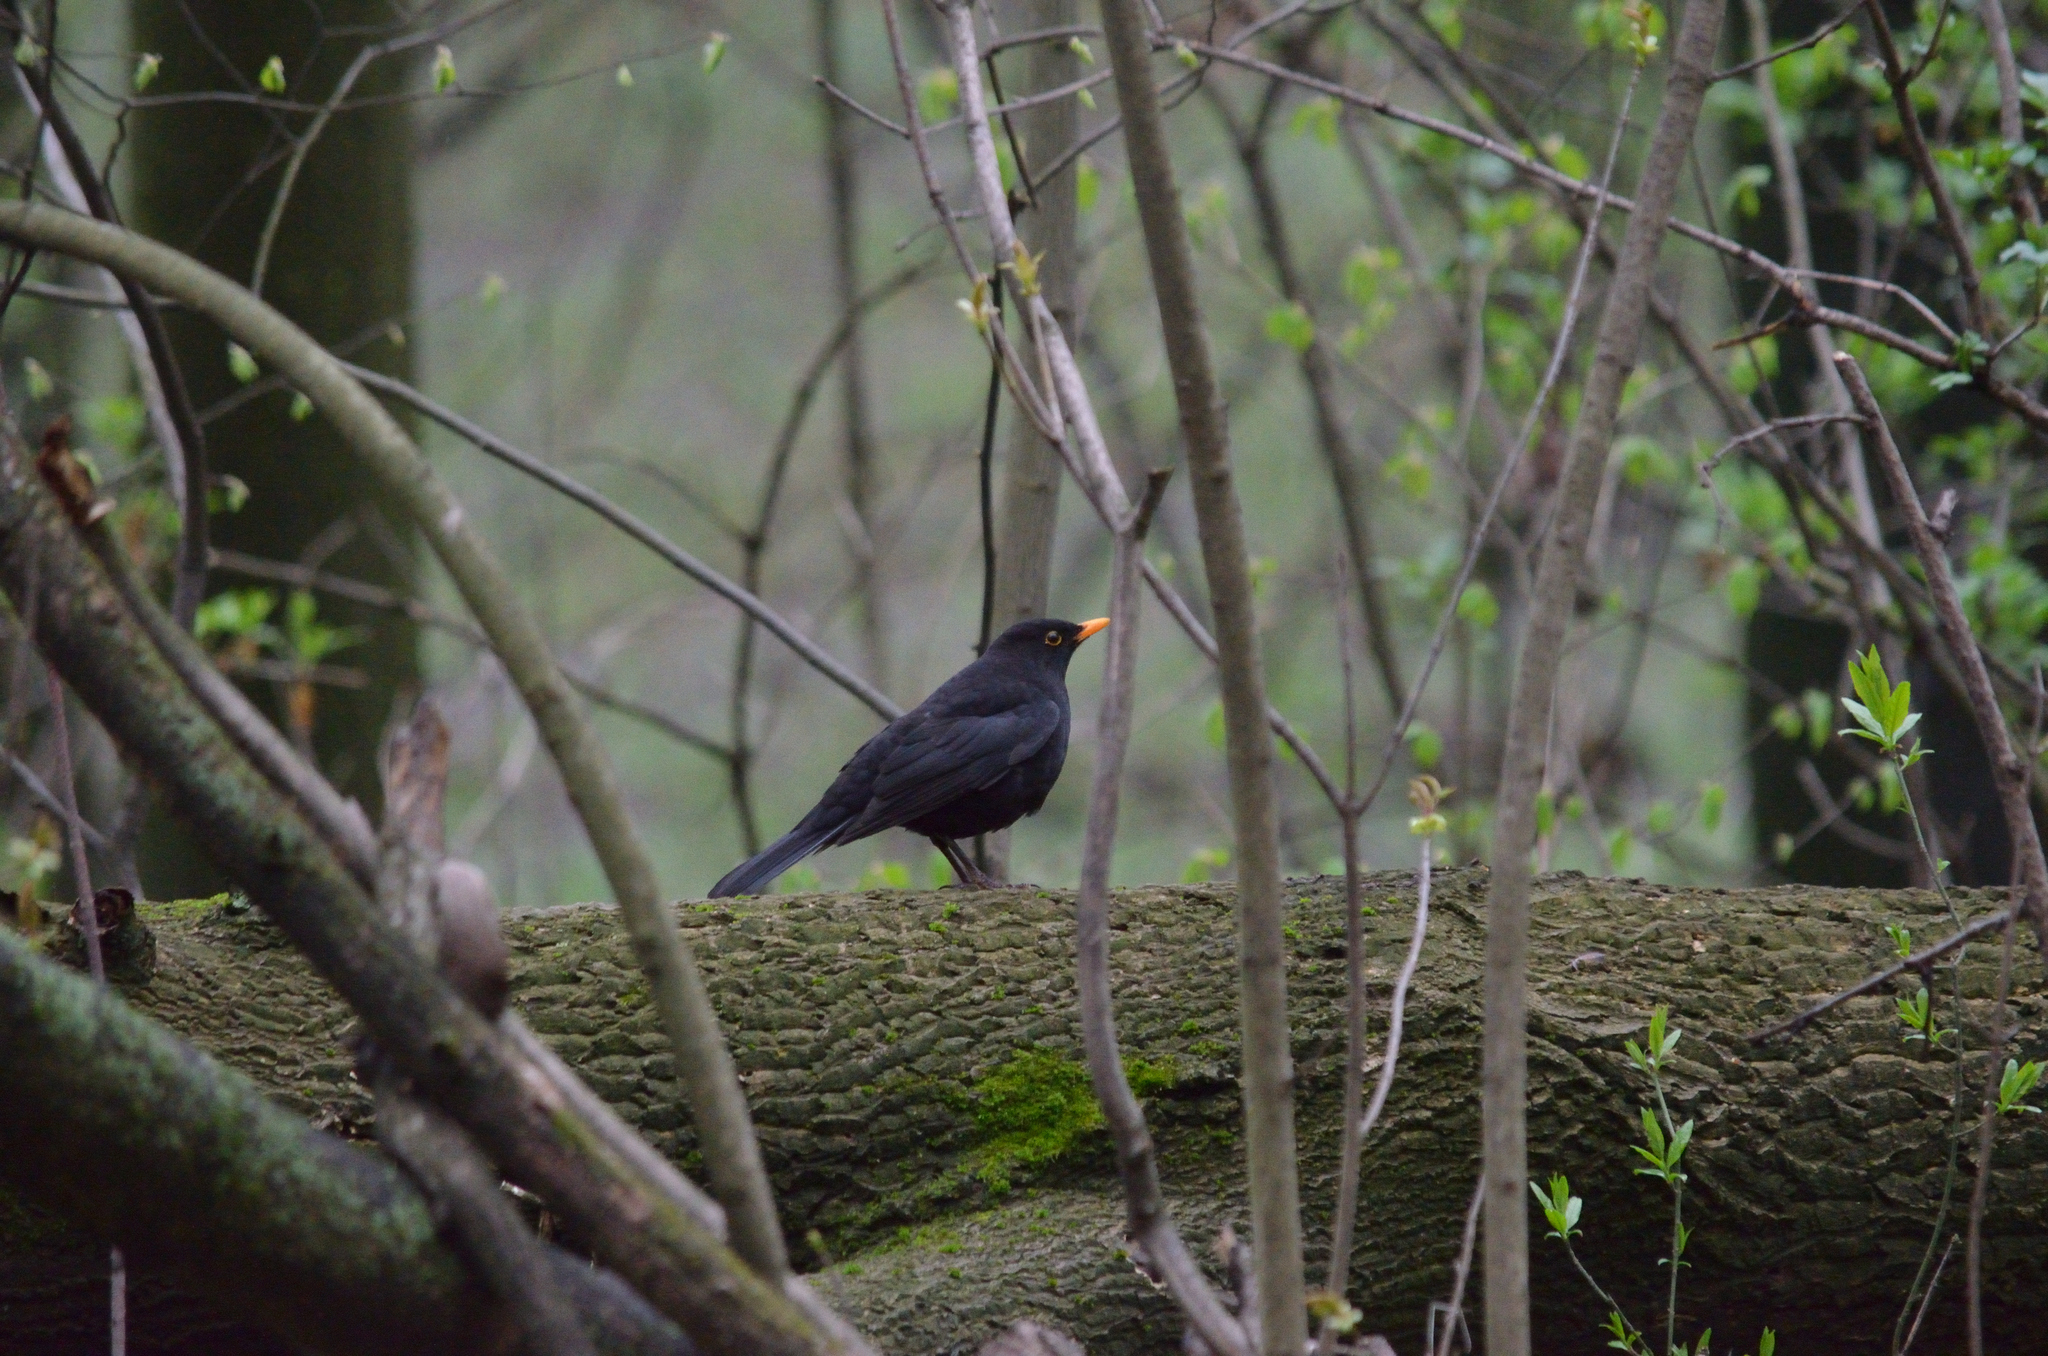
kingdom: Animalia
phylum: Chordata
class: Aves
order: Passeriformes
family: Turdidae
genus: Turdus
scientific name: Turdus merula
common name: Common blackbird
